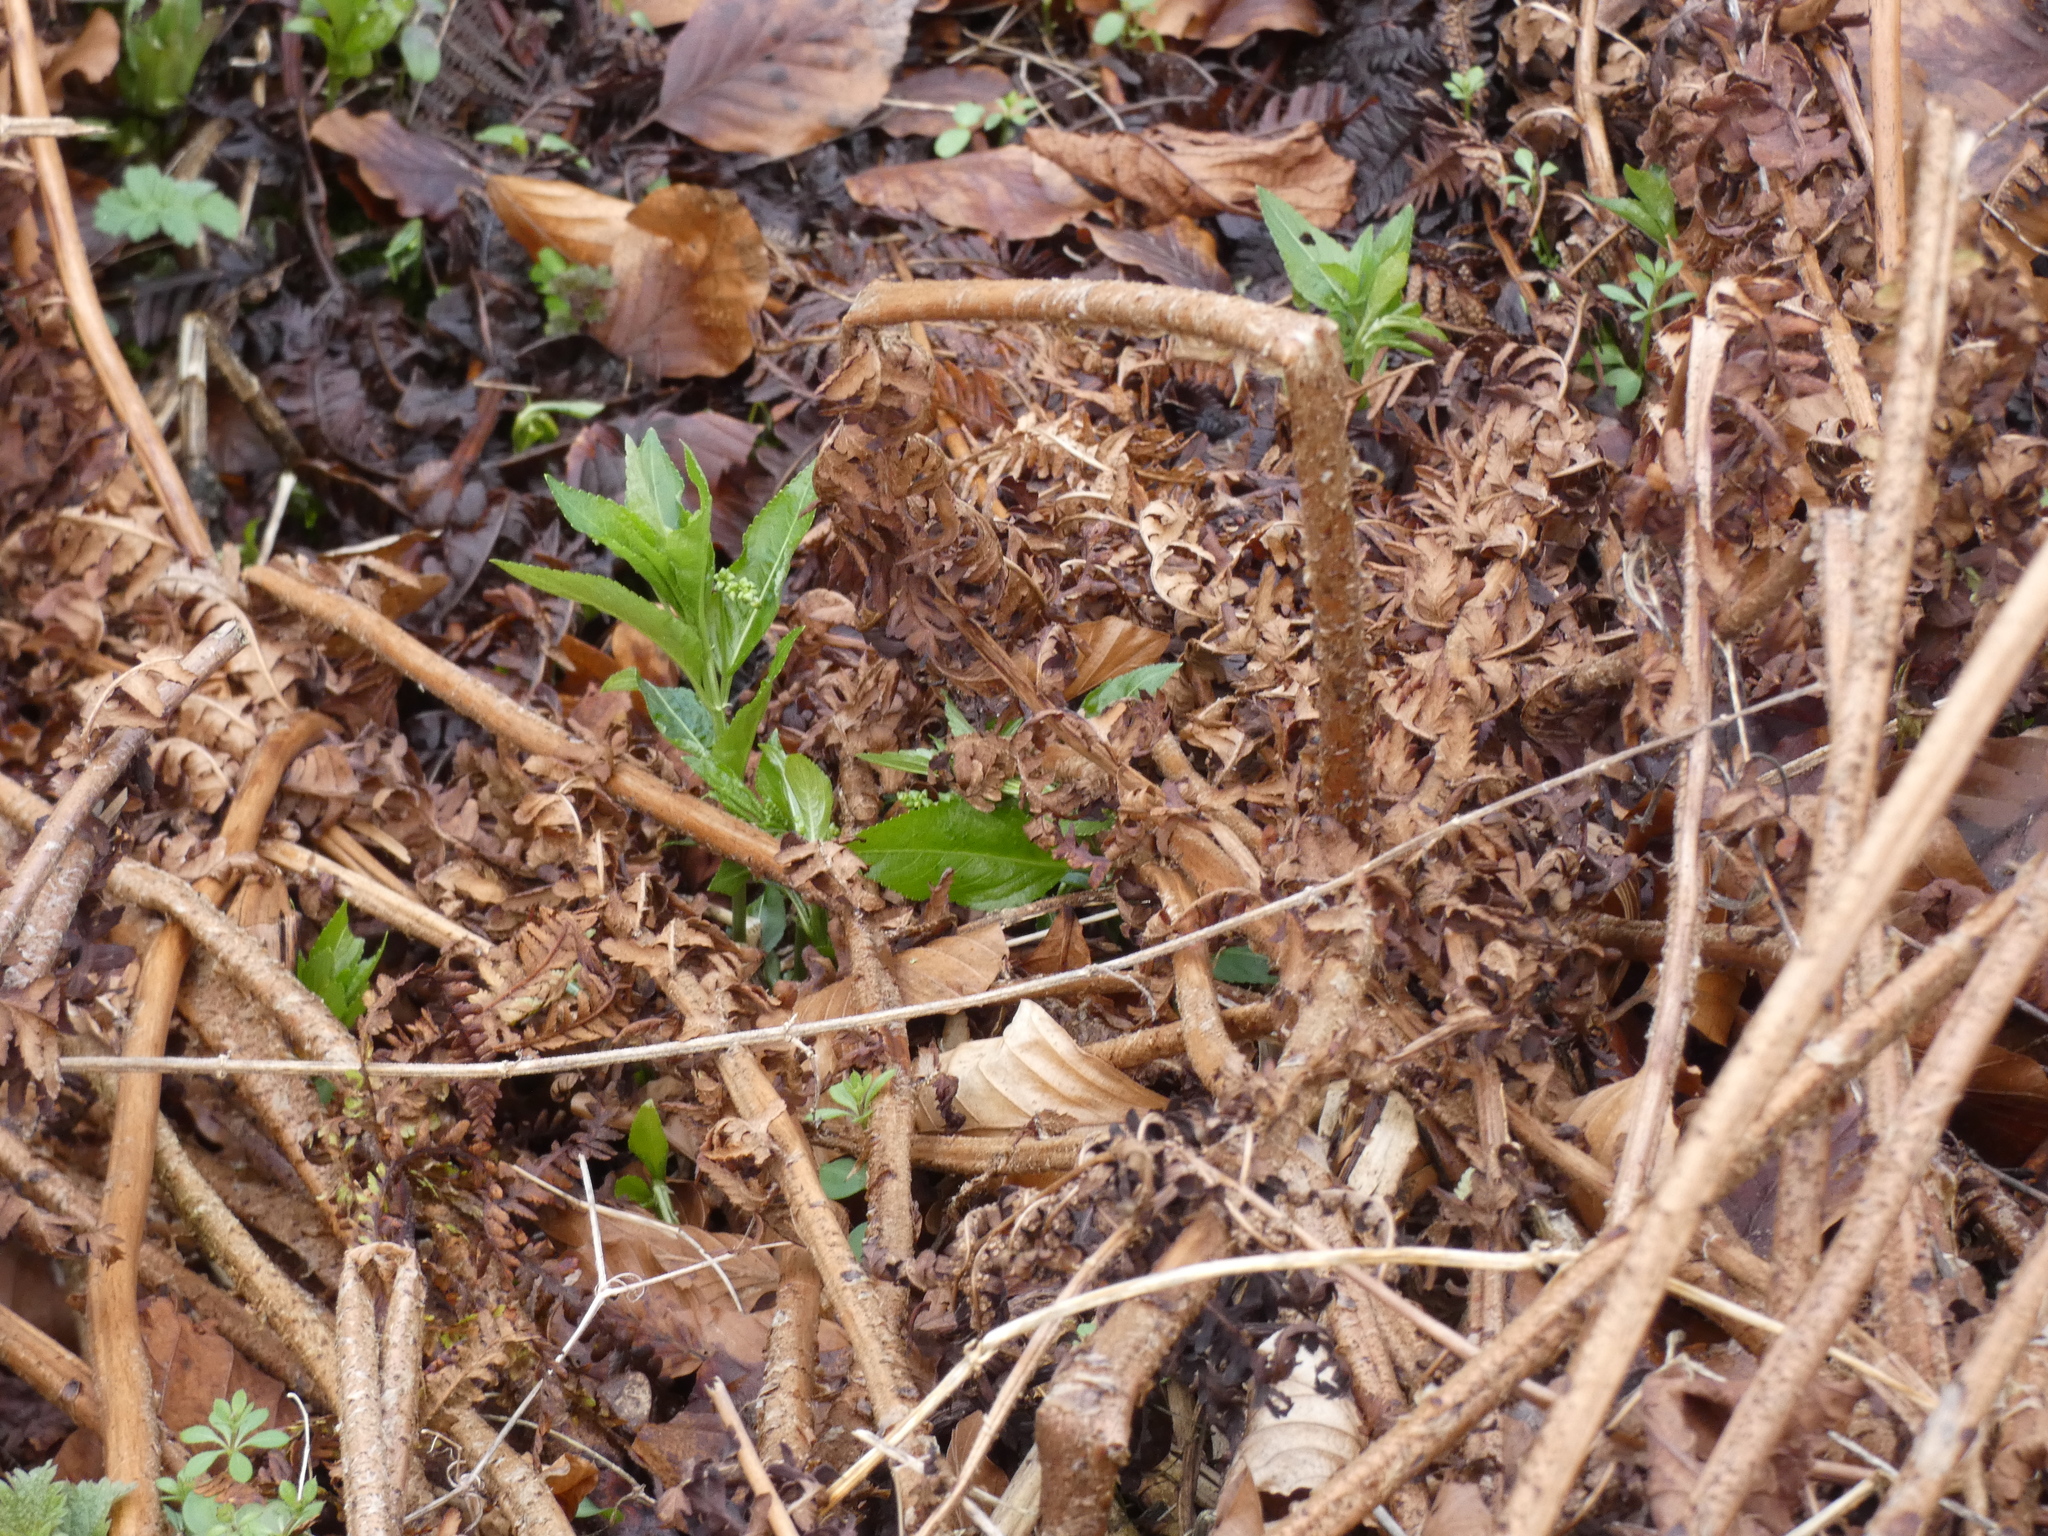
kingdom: Plantae
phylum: Tracheophyta
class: Magnoliopsida
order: Malpighiales
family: Euphorbiaceae
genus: Mercurialis
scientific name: Mercurialis perennis
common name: Dog mercury
